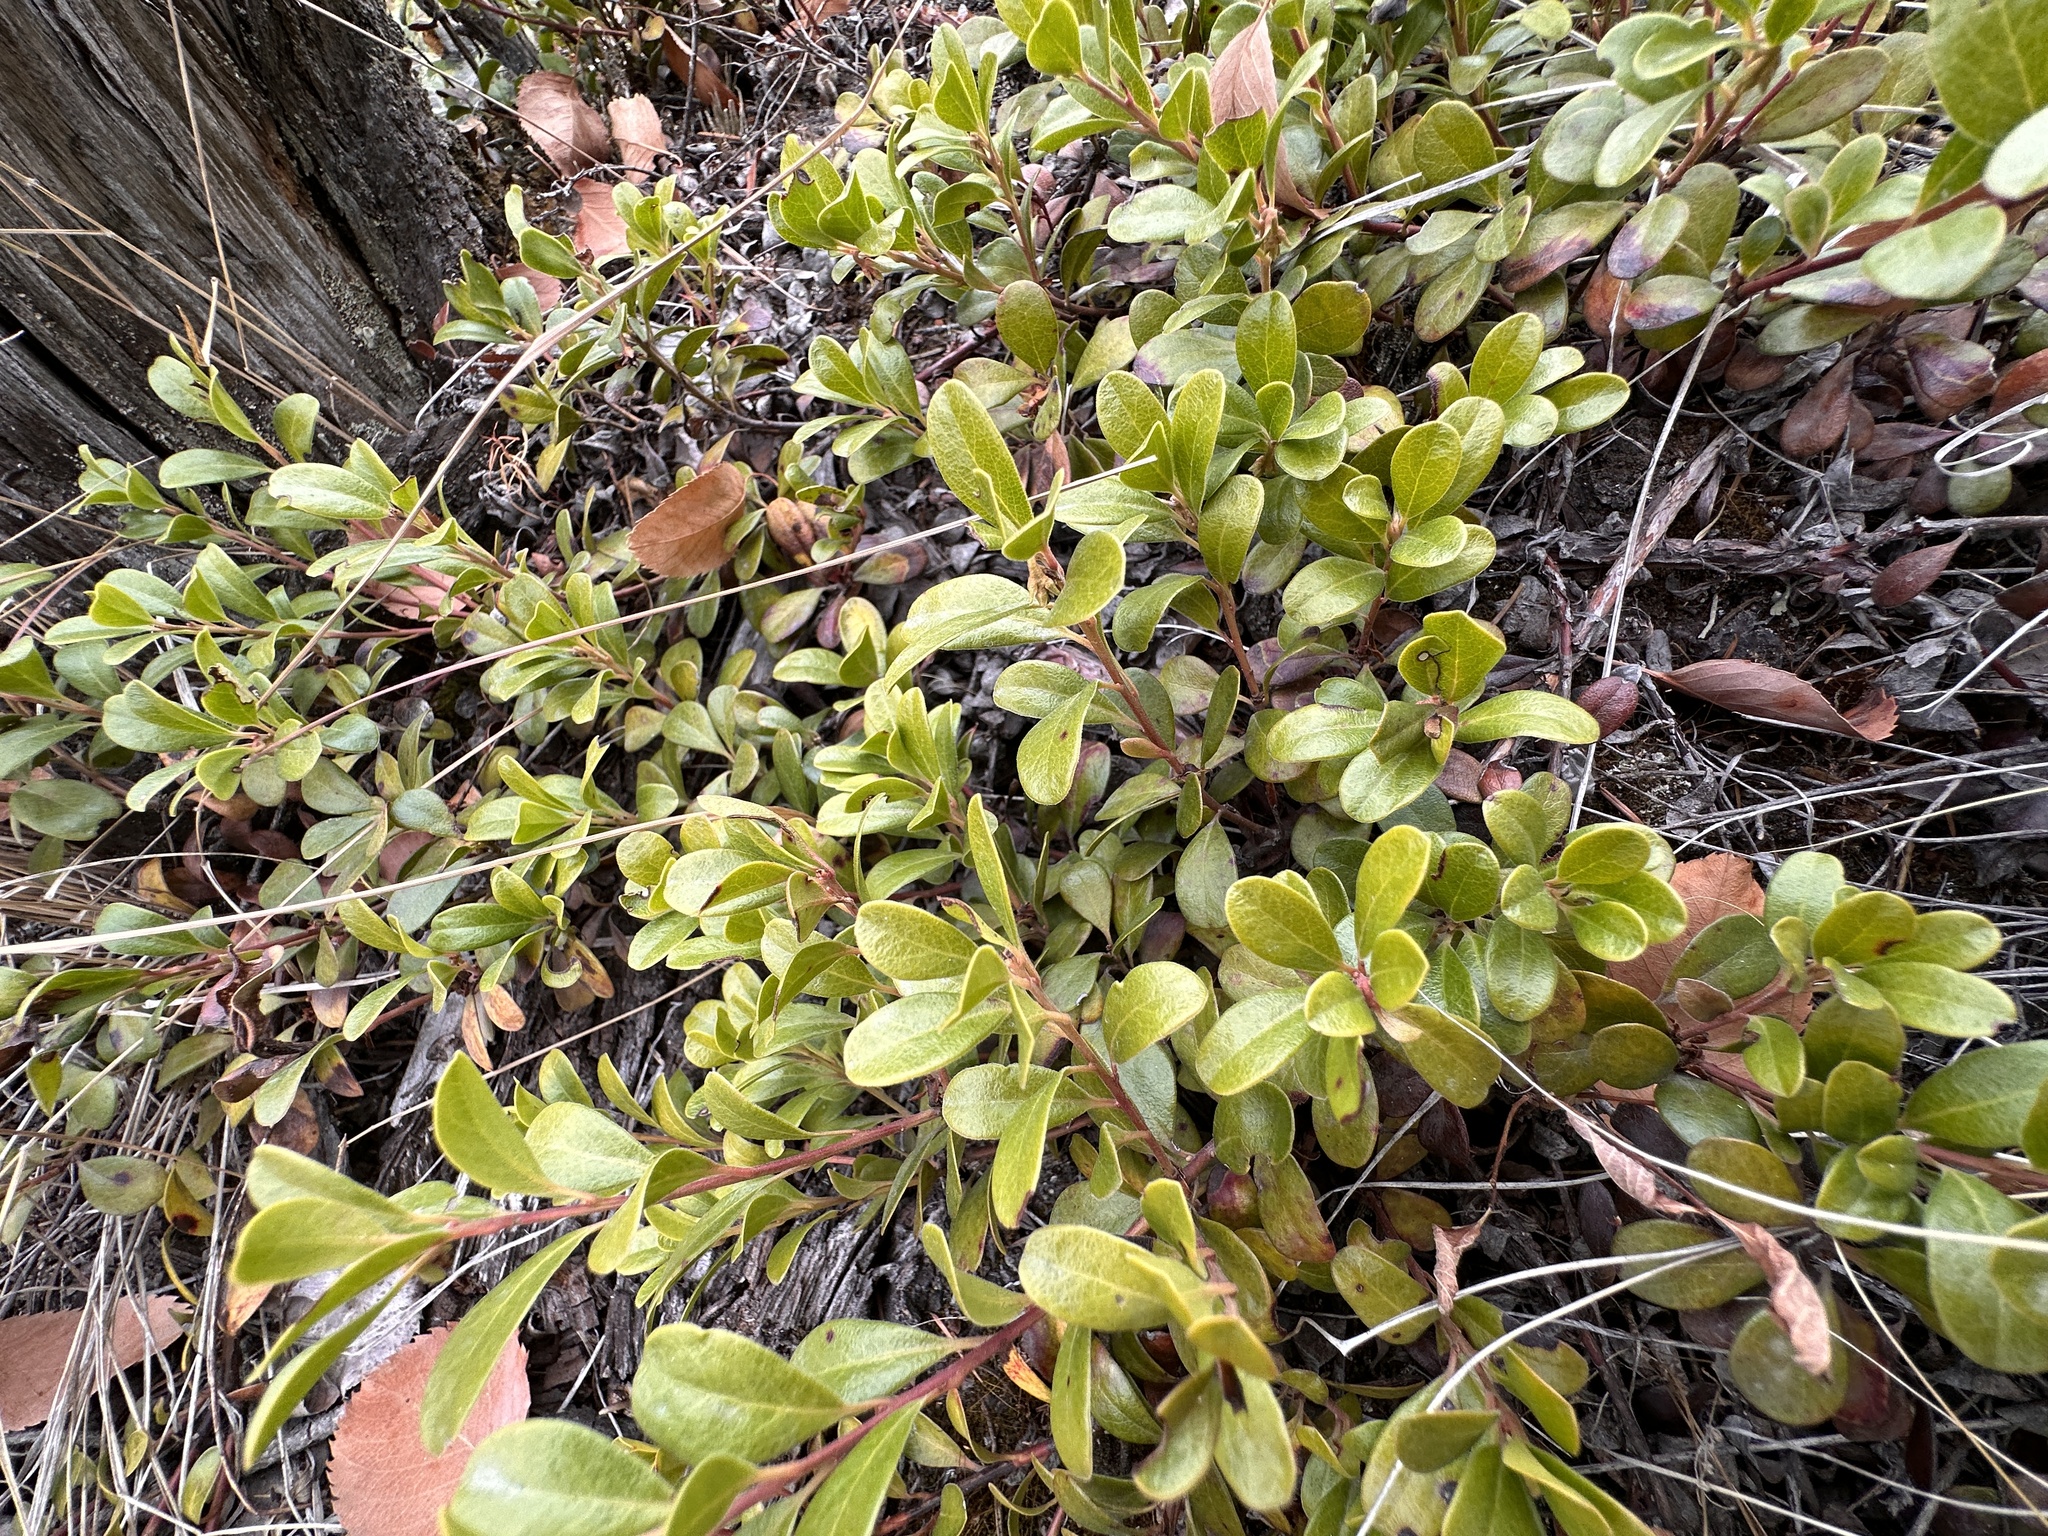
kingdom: Plantae
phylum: Tracheophyta
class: Magnoliopsida
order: Ericales
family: Ericaceae
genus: Arctostaphylos
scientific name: Arctostaphylos uva-ursi
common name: Bearberry
